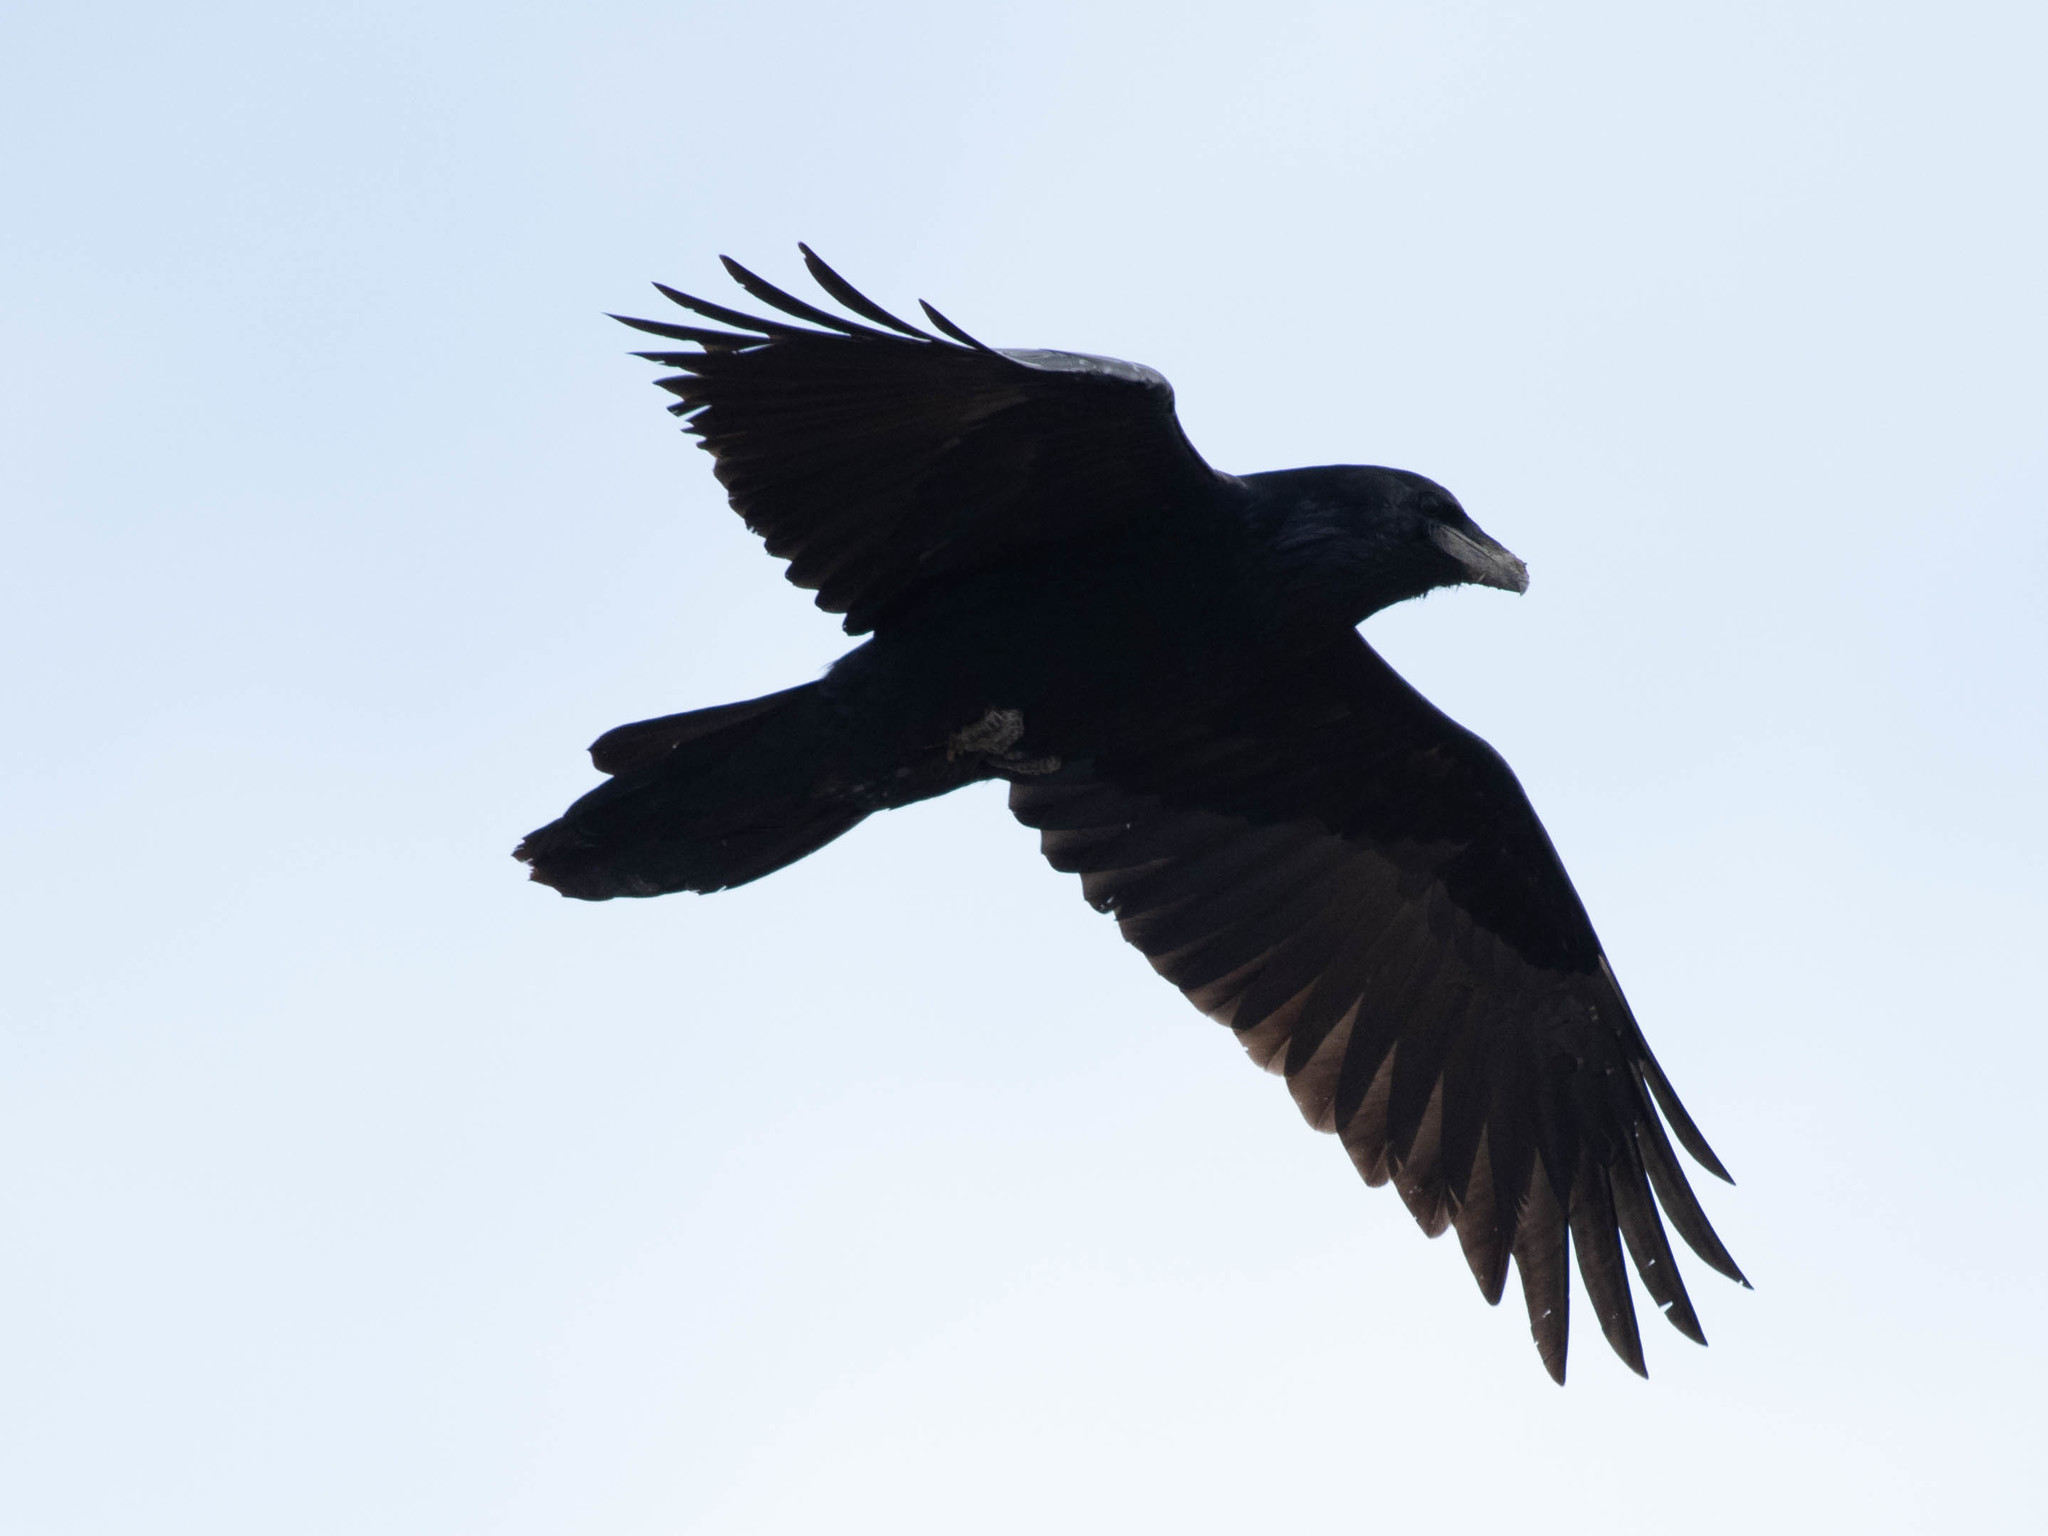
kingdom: Animalia
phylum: Chordata
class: Aves
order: Passeriformes
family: Corvidae
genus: Corvus
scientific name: Corvus corax
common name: Common raven
